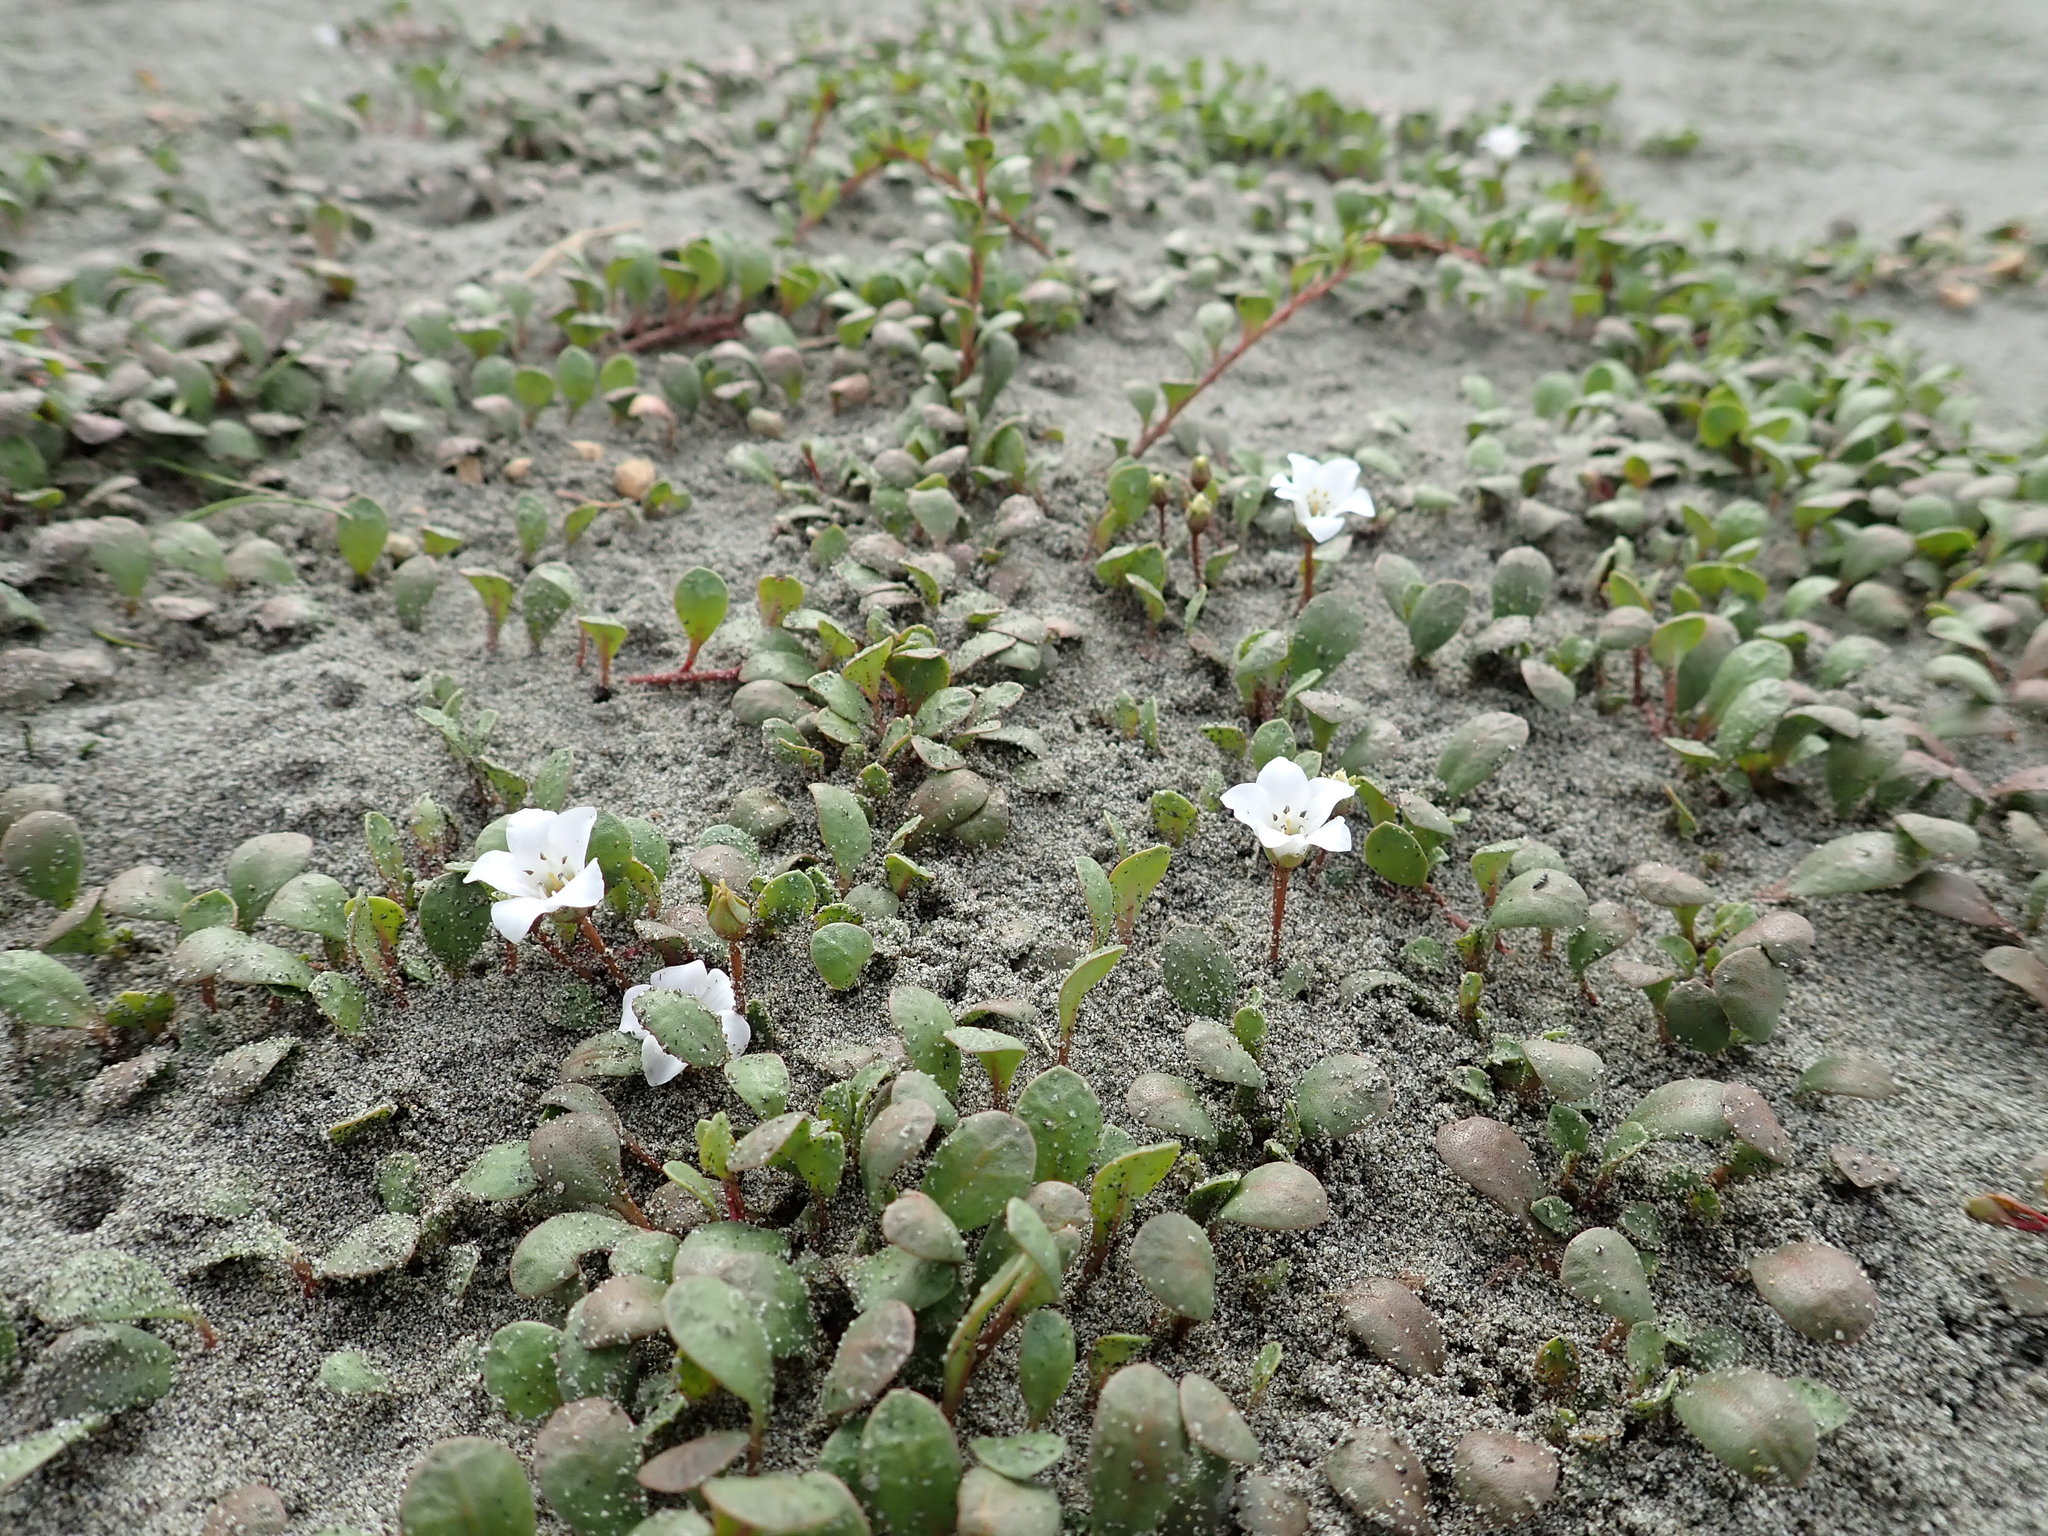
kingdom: Plantae
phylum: Tracheophyta
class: Magnoliopsida
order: Ericales
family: Primulaceae
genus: Samolus
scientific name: Samolus repens
